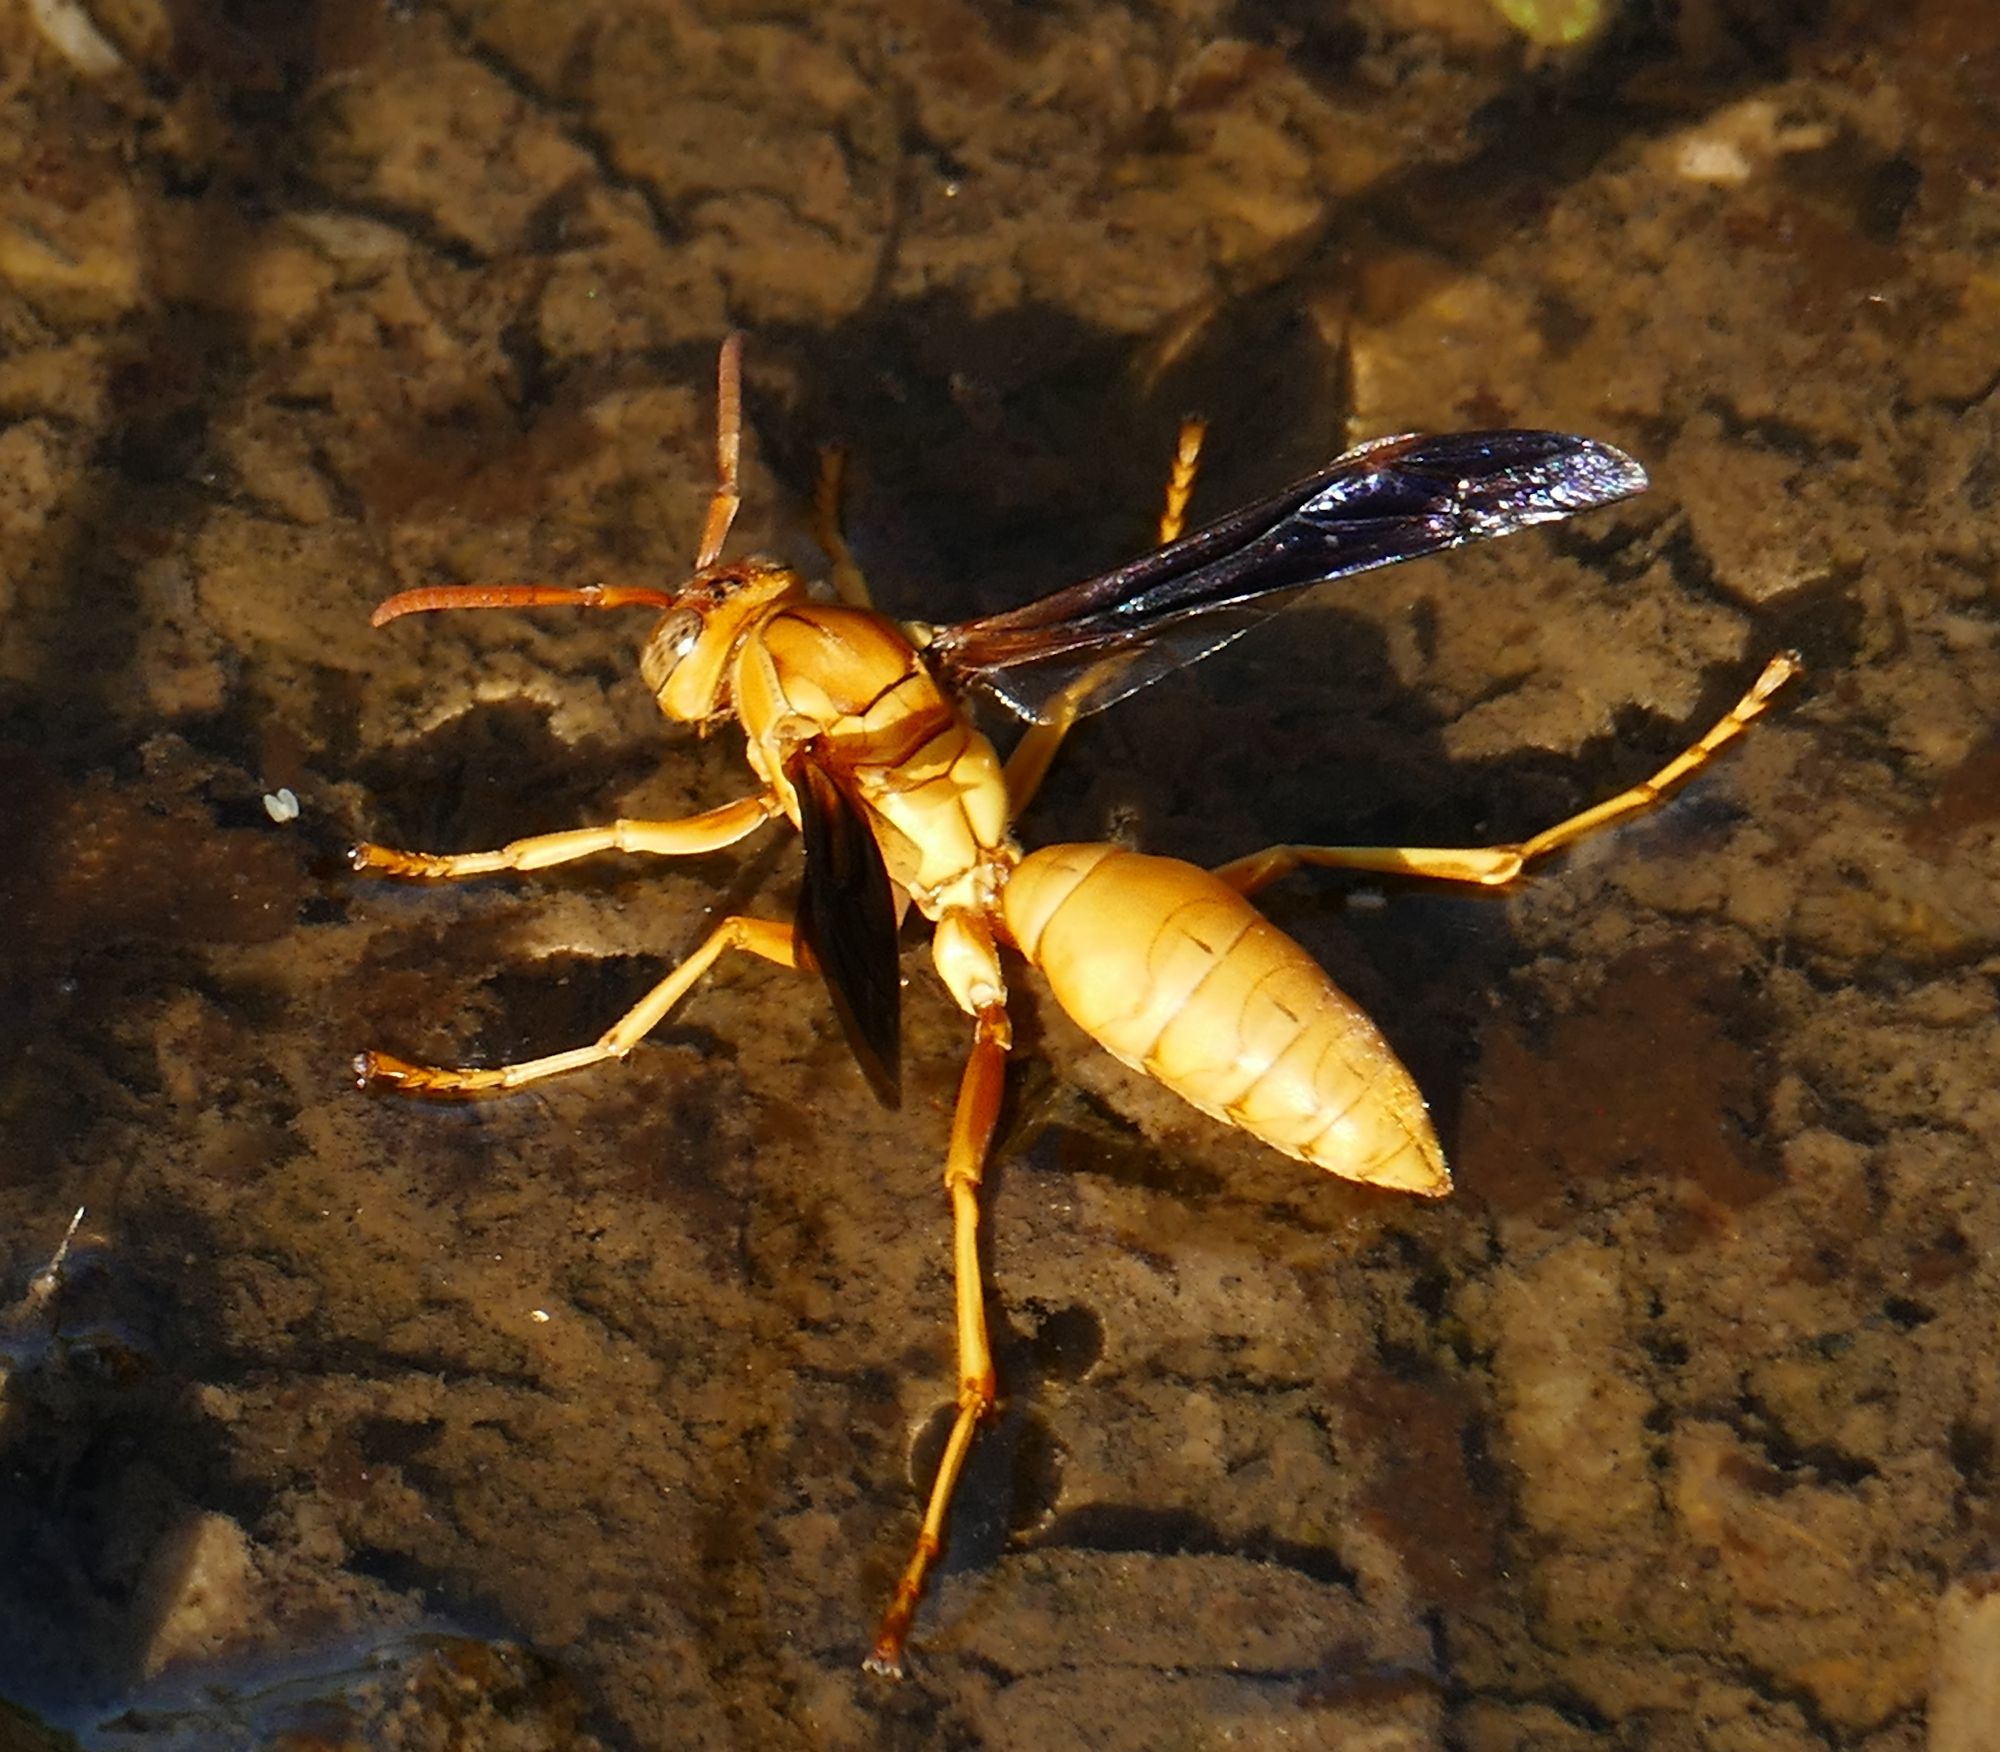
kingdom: Animalia
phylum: Arthropoda
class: Insecta
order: Hymenoptera
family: Eumenidae
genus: Polistes
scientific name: Polistes flavus
